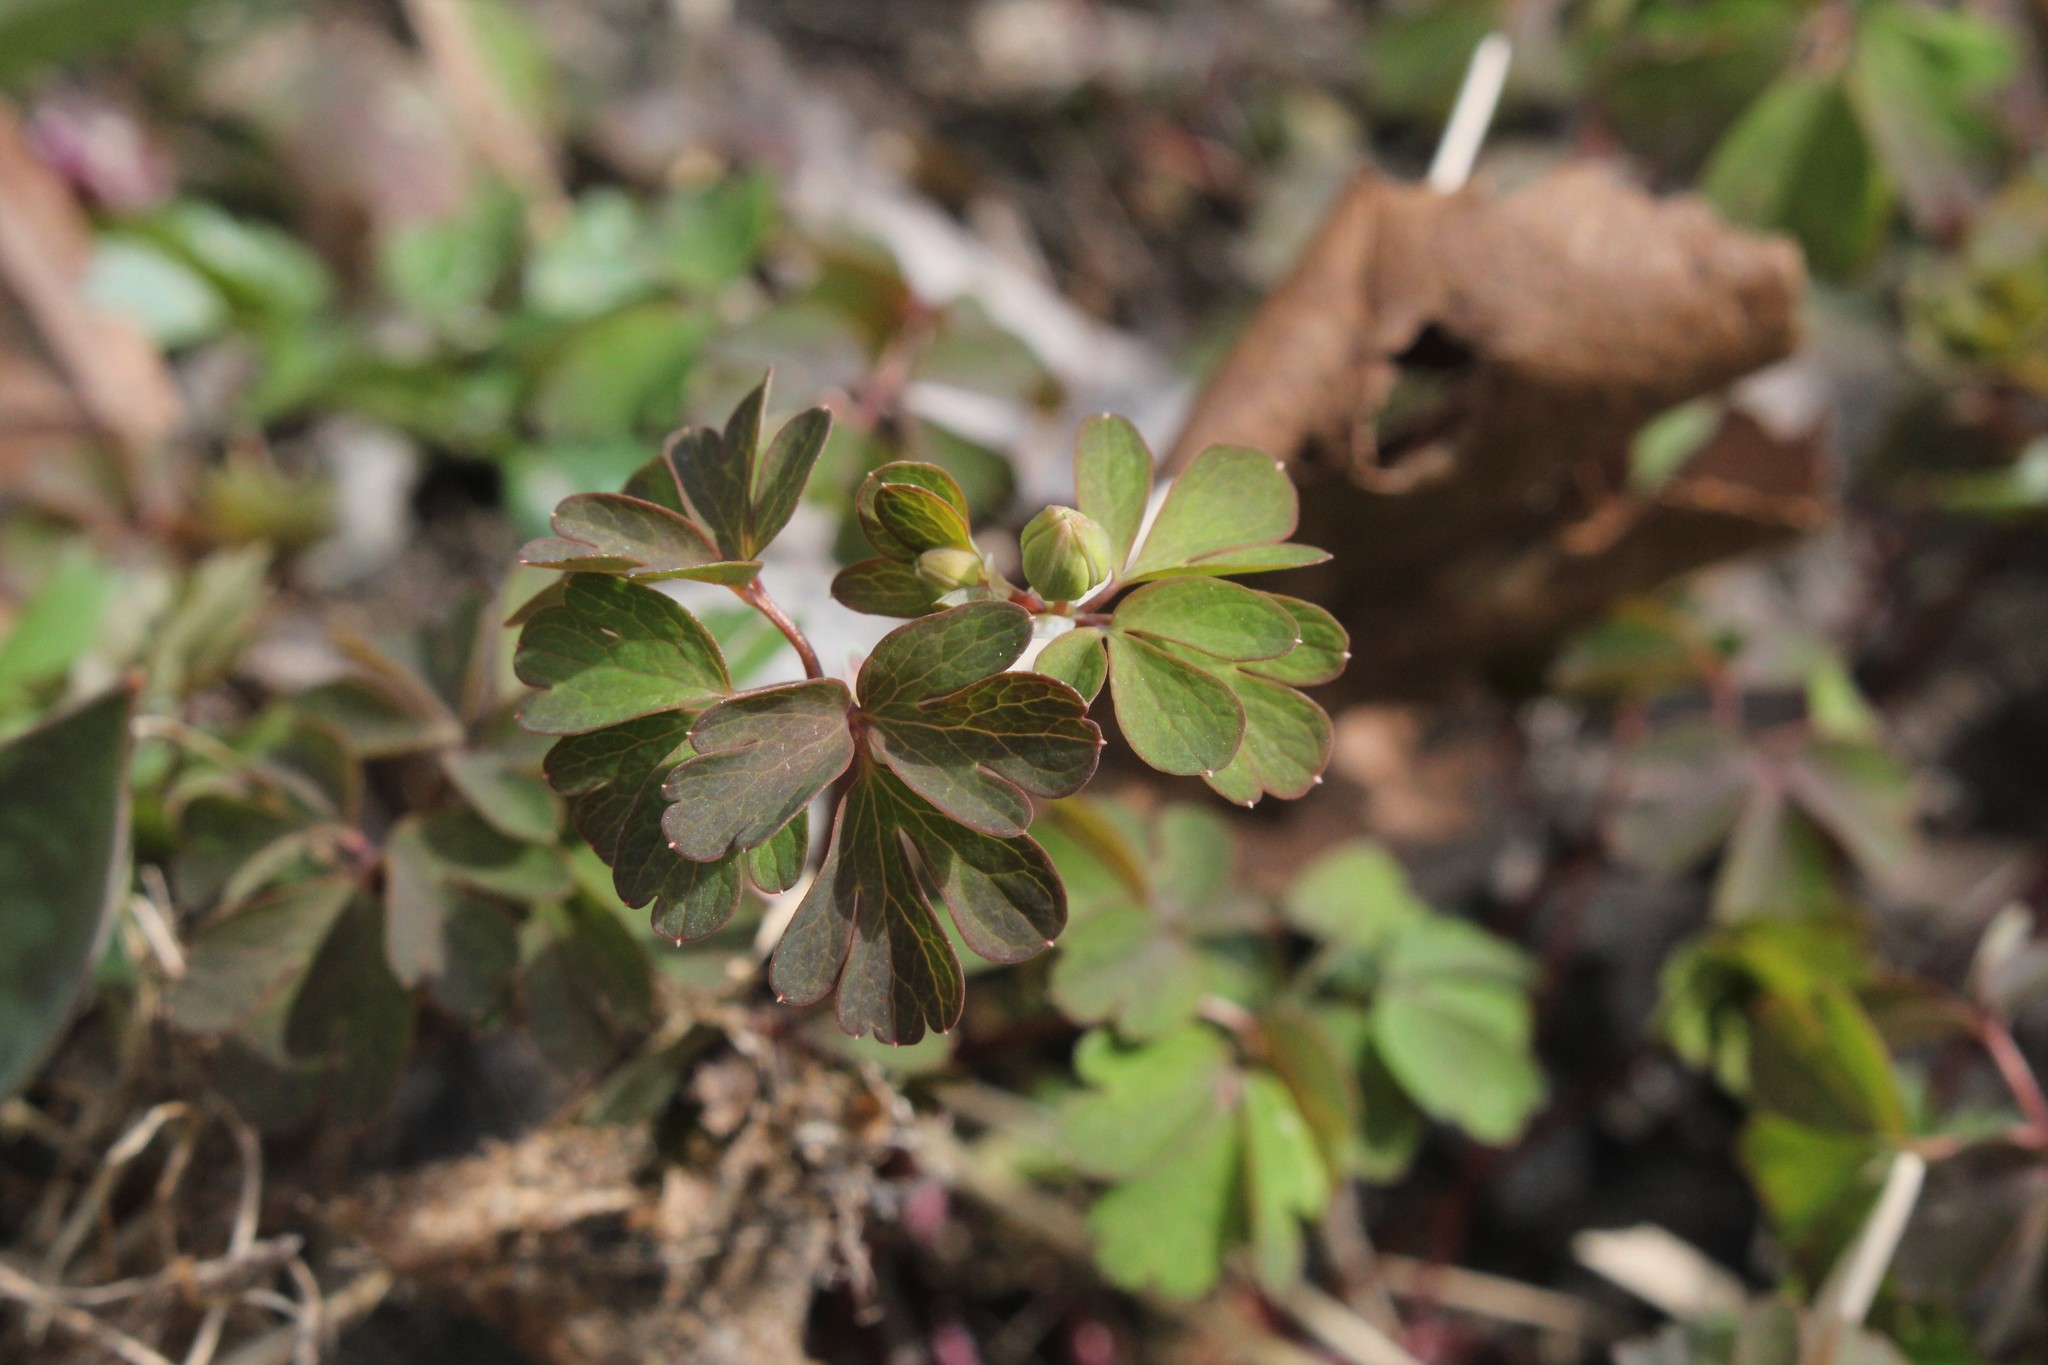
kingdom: Plantae
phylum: Tracheophyta
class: Magnoliopsida
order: Ranunculales
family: Ranunculaceae
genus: Enemion
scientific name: Enemion biternatum
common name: Eastern false rue-anemone
